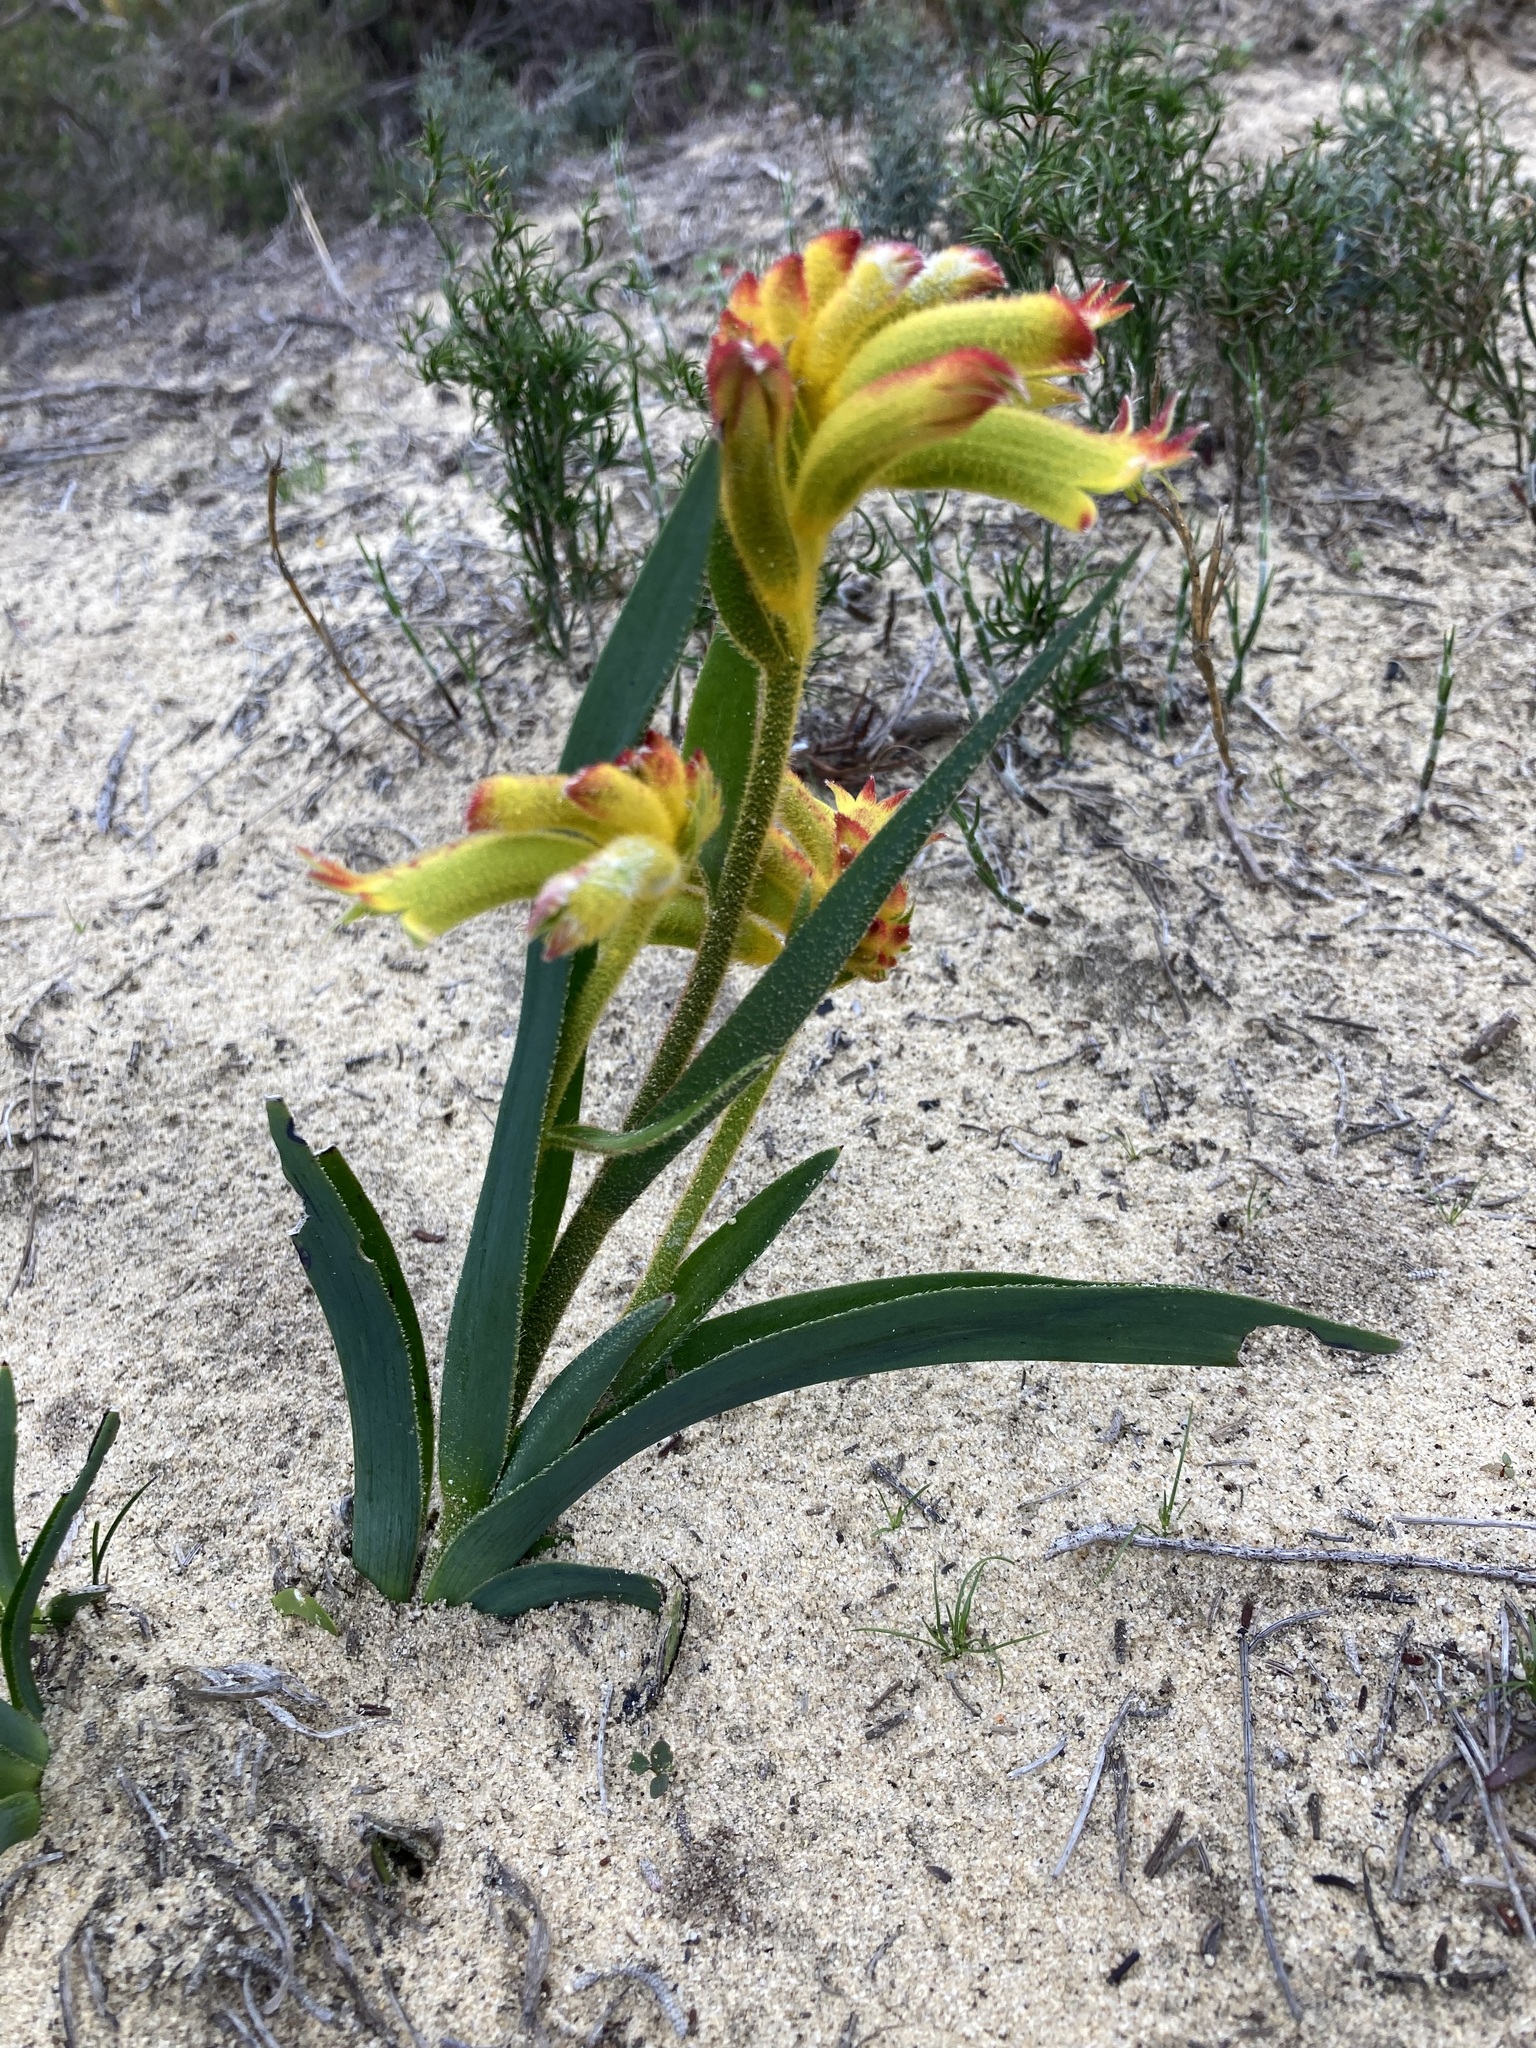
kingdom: Plantae
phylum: Tracheophyta
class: Liliopsida
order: Commelinales
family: Haemodoraceae
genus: Anigozanthos
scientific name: Anigozanthos humilis
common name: Cat's-paw
